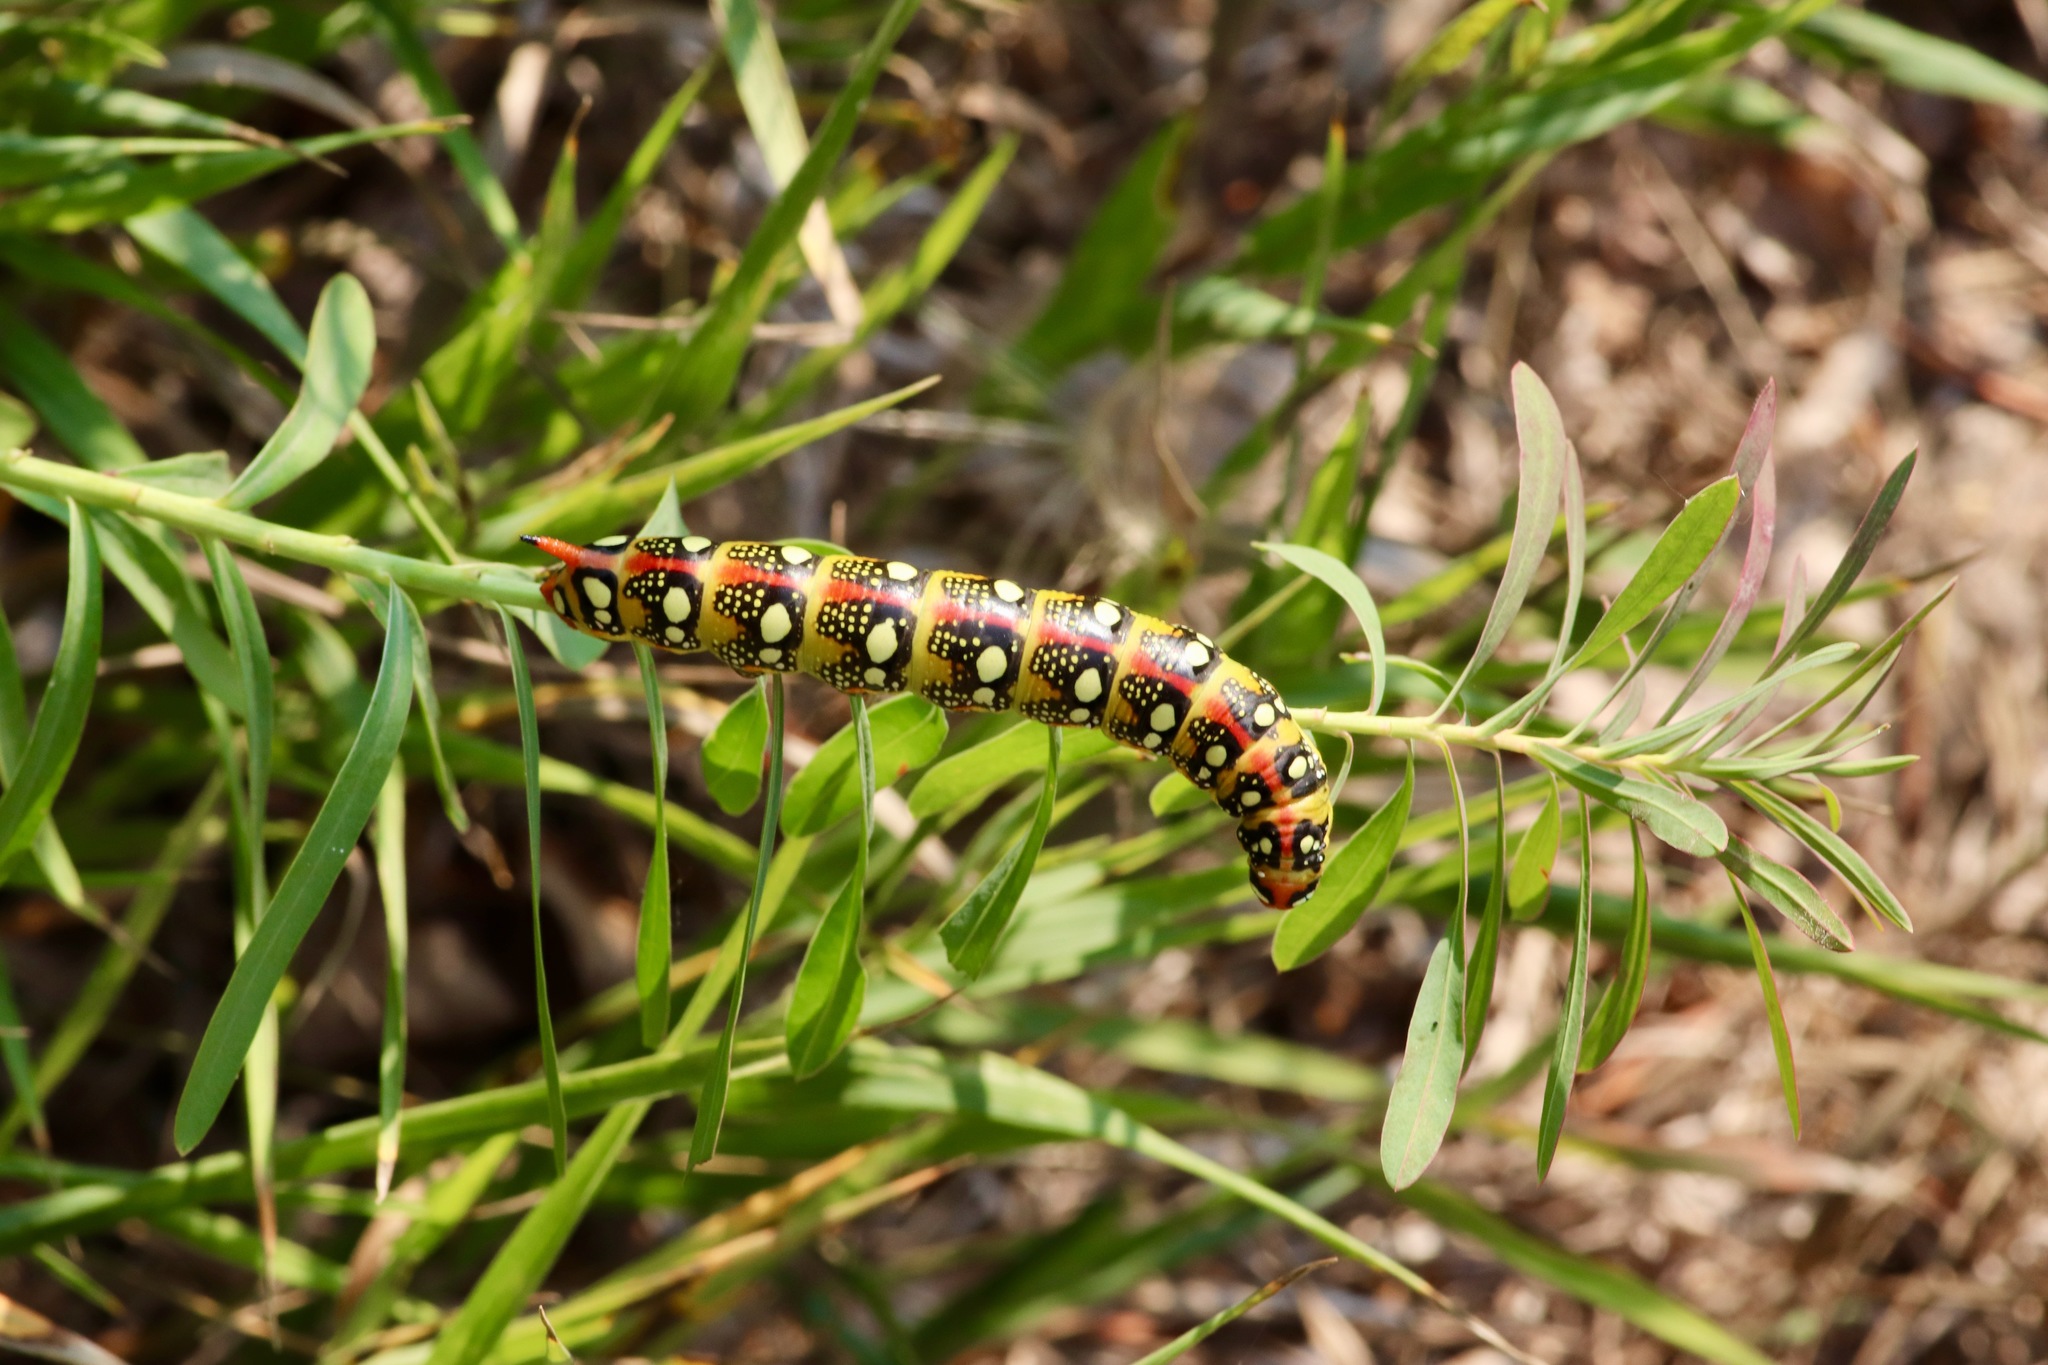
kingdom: Animalia
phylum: Arthropoda
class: Insecta
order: Lepidoptera
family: Sphingidae
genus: Hyles
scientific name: Hyles euphorbiae
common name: Spurge hawk-moth
